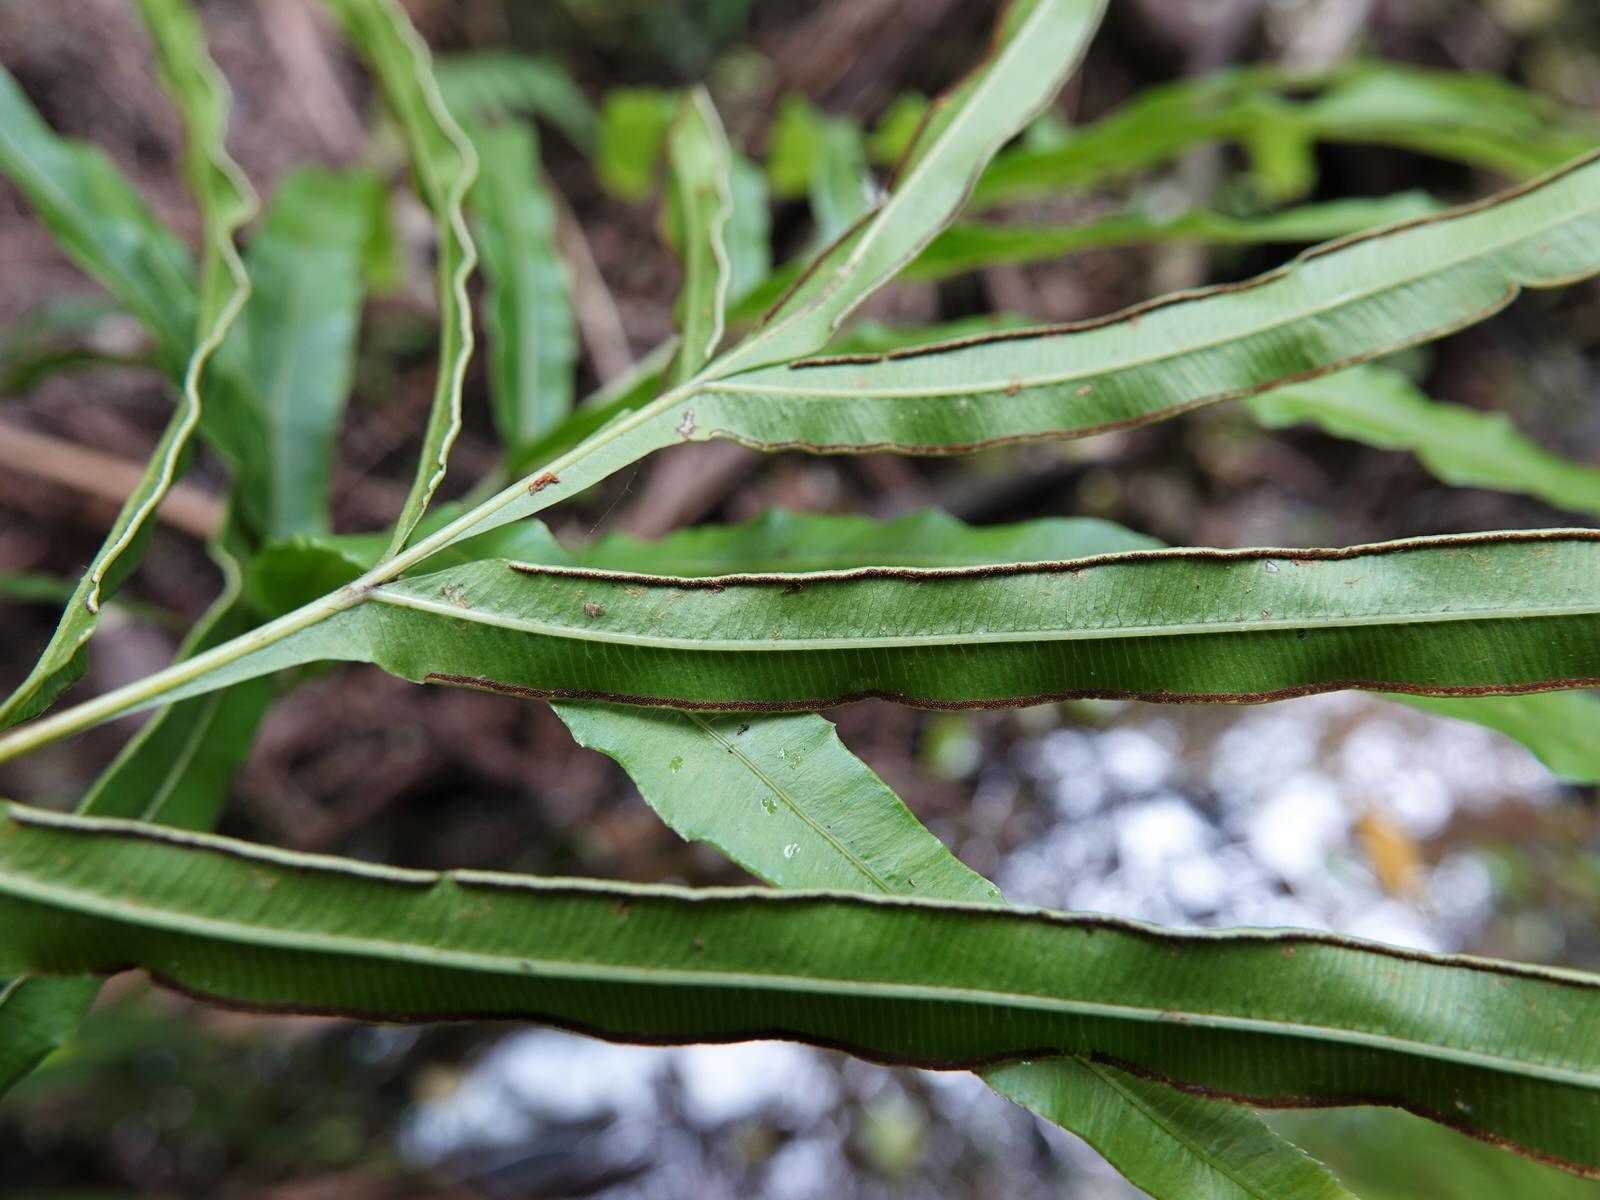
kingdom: Plantae
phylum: Tracheophyta
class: Polypodiopsida
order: Polypodiales
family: Pteridaceae
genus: Pteris
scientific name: Pteris cretica
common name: Ribbon fern
